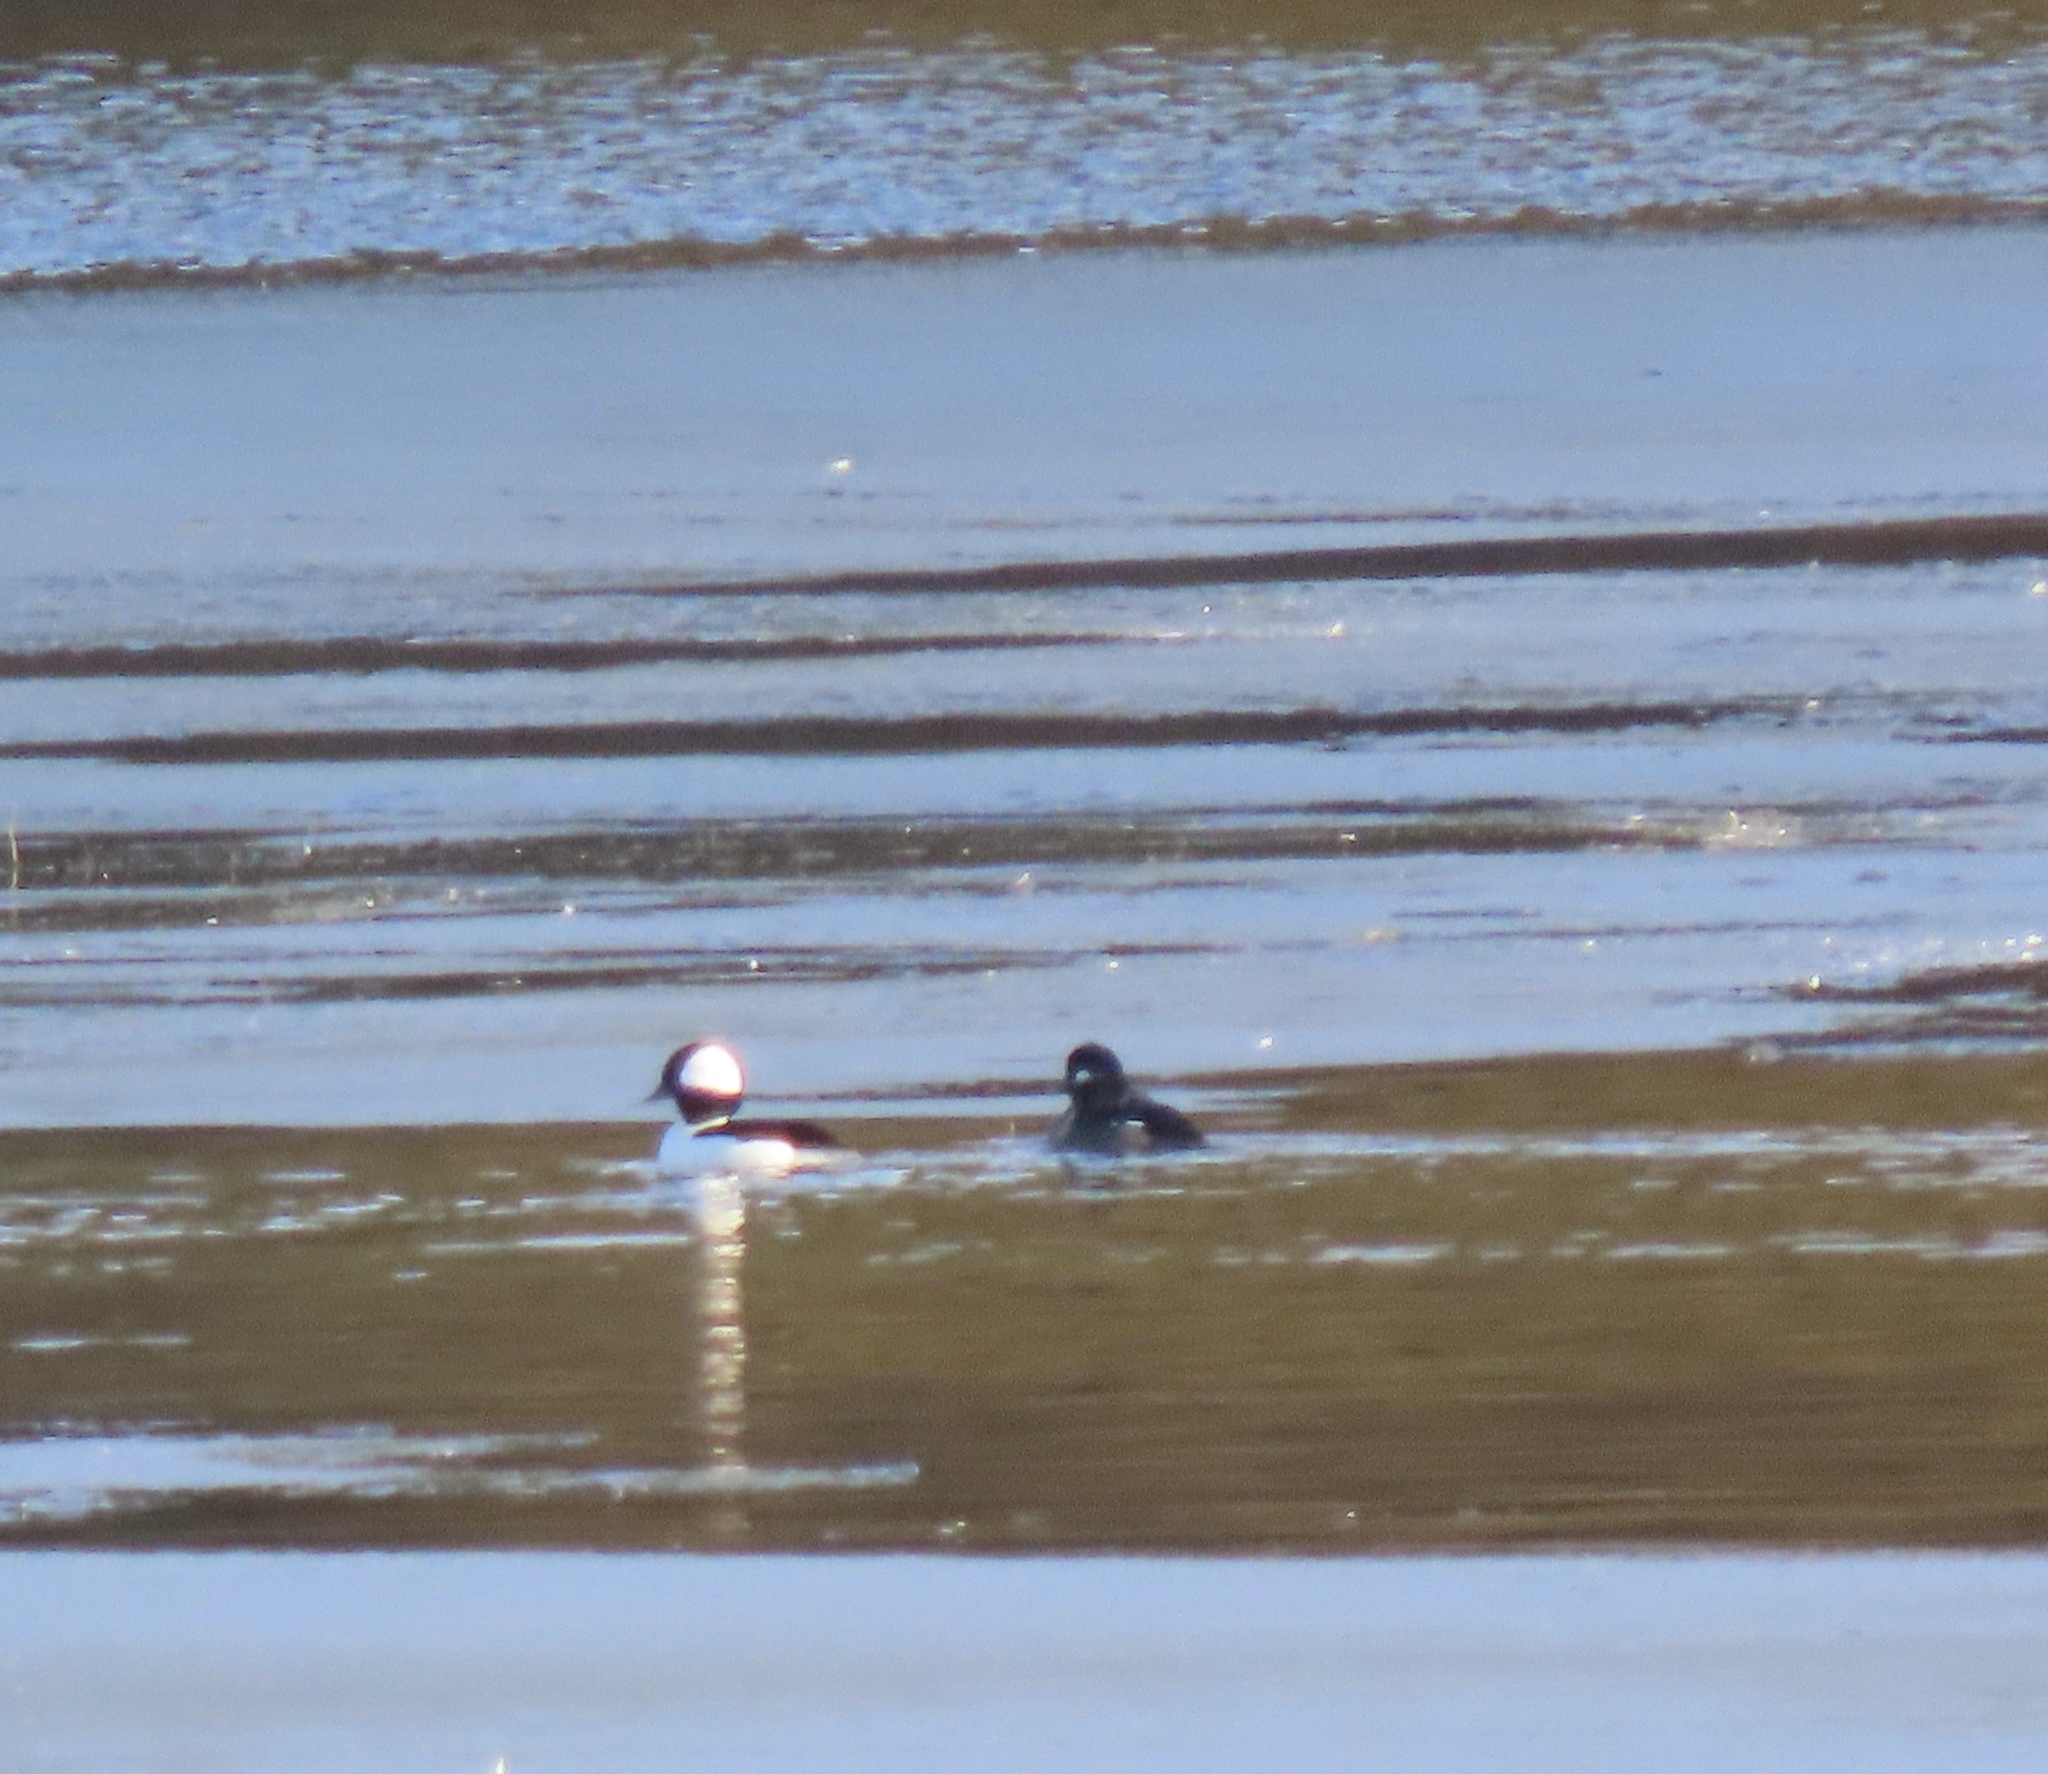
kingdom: Animalia
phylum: Chordata
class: Aves
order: Anseriformes
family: Anatidae
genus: Bucephala
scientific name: Bucephala albeola
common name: Bufflehead
